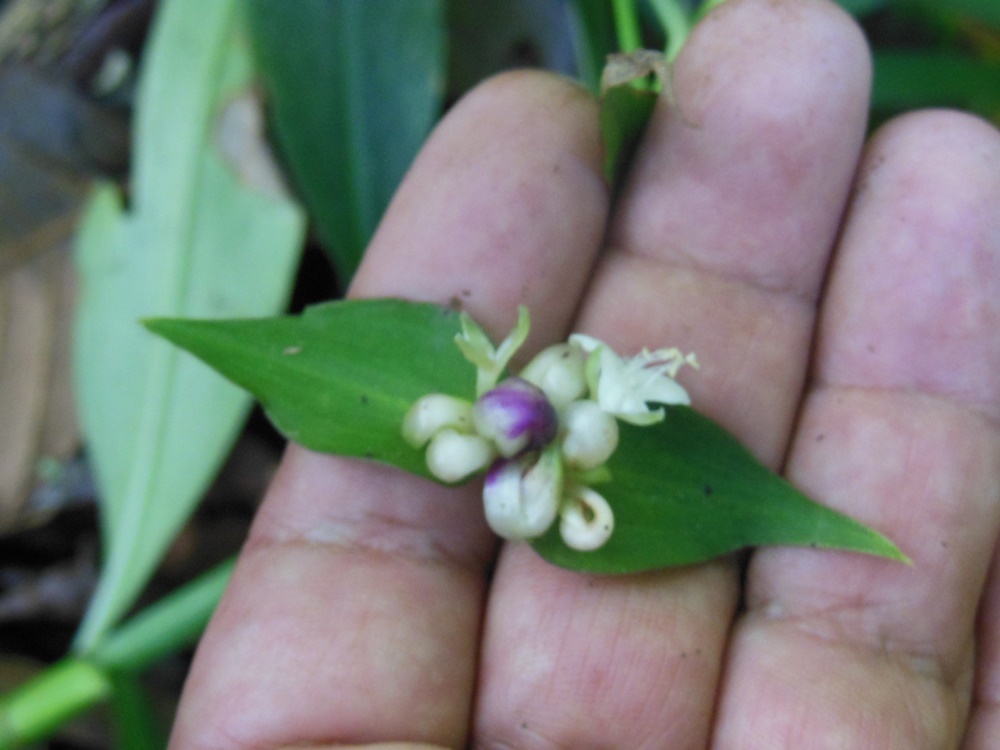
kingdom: Plantae
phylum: Tracheophyta
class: Liliopsida
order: Commelinales
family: Commelinaceae
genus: Tradescantia
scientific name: Tradescantia zanonia
